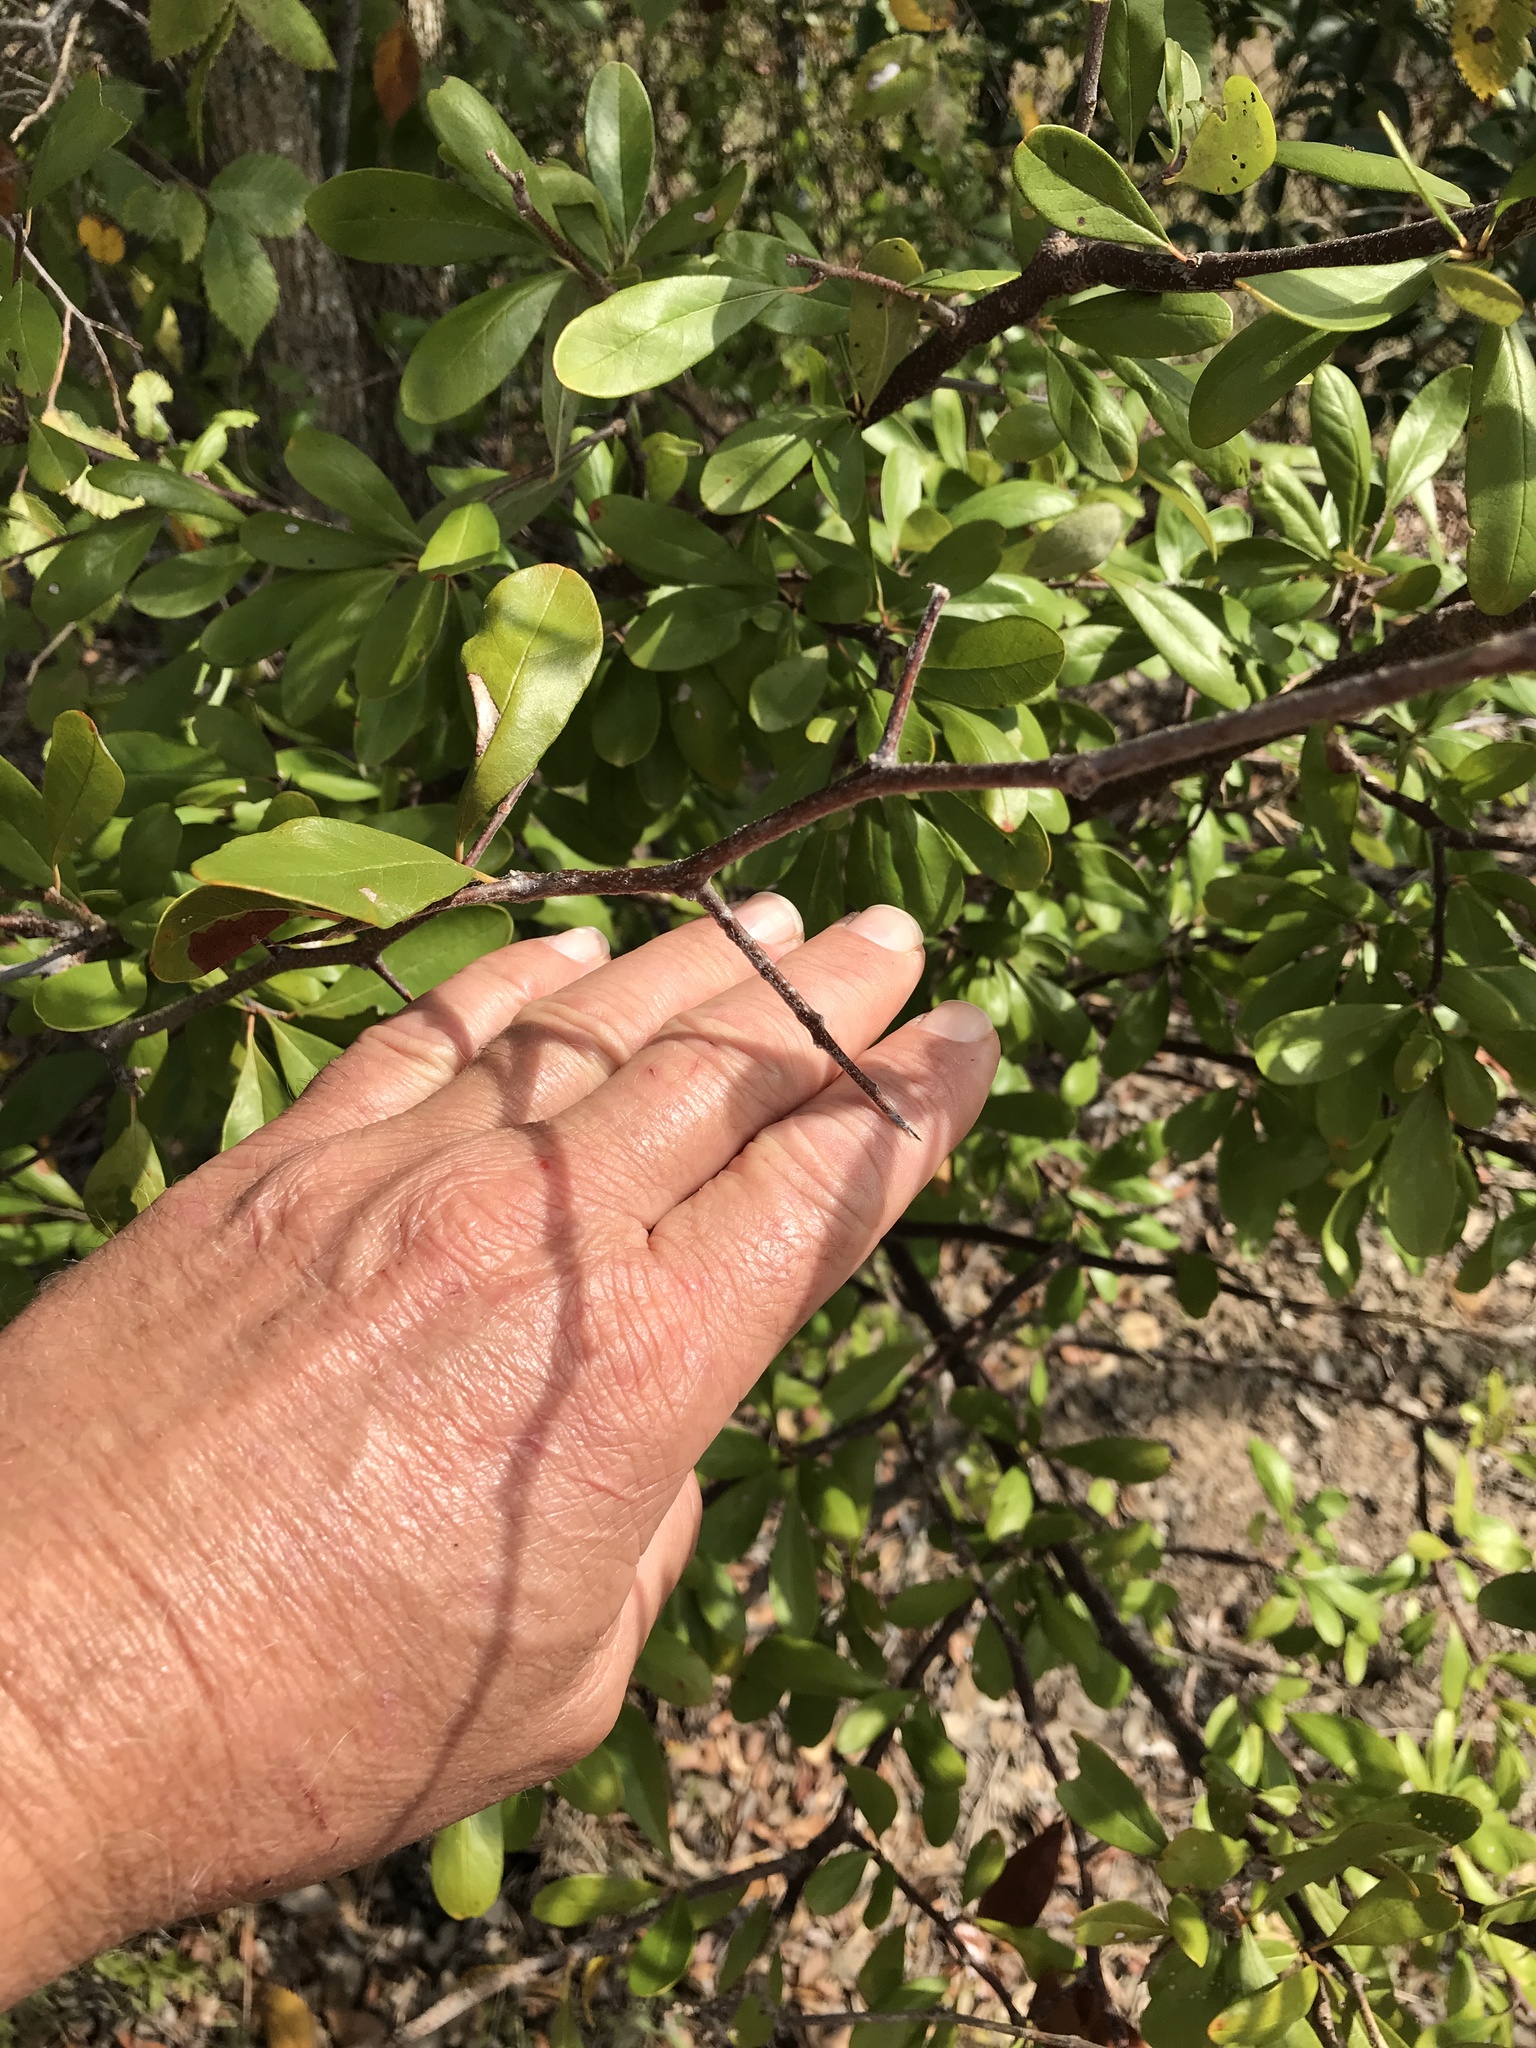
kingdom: Plantae
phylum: Tracheophyta
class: Magnoliopsida
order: Ericales
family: Sapotaceae
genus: Sideroxylon
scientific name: Sideroxylon lanuginosum
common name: Chittamwood
